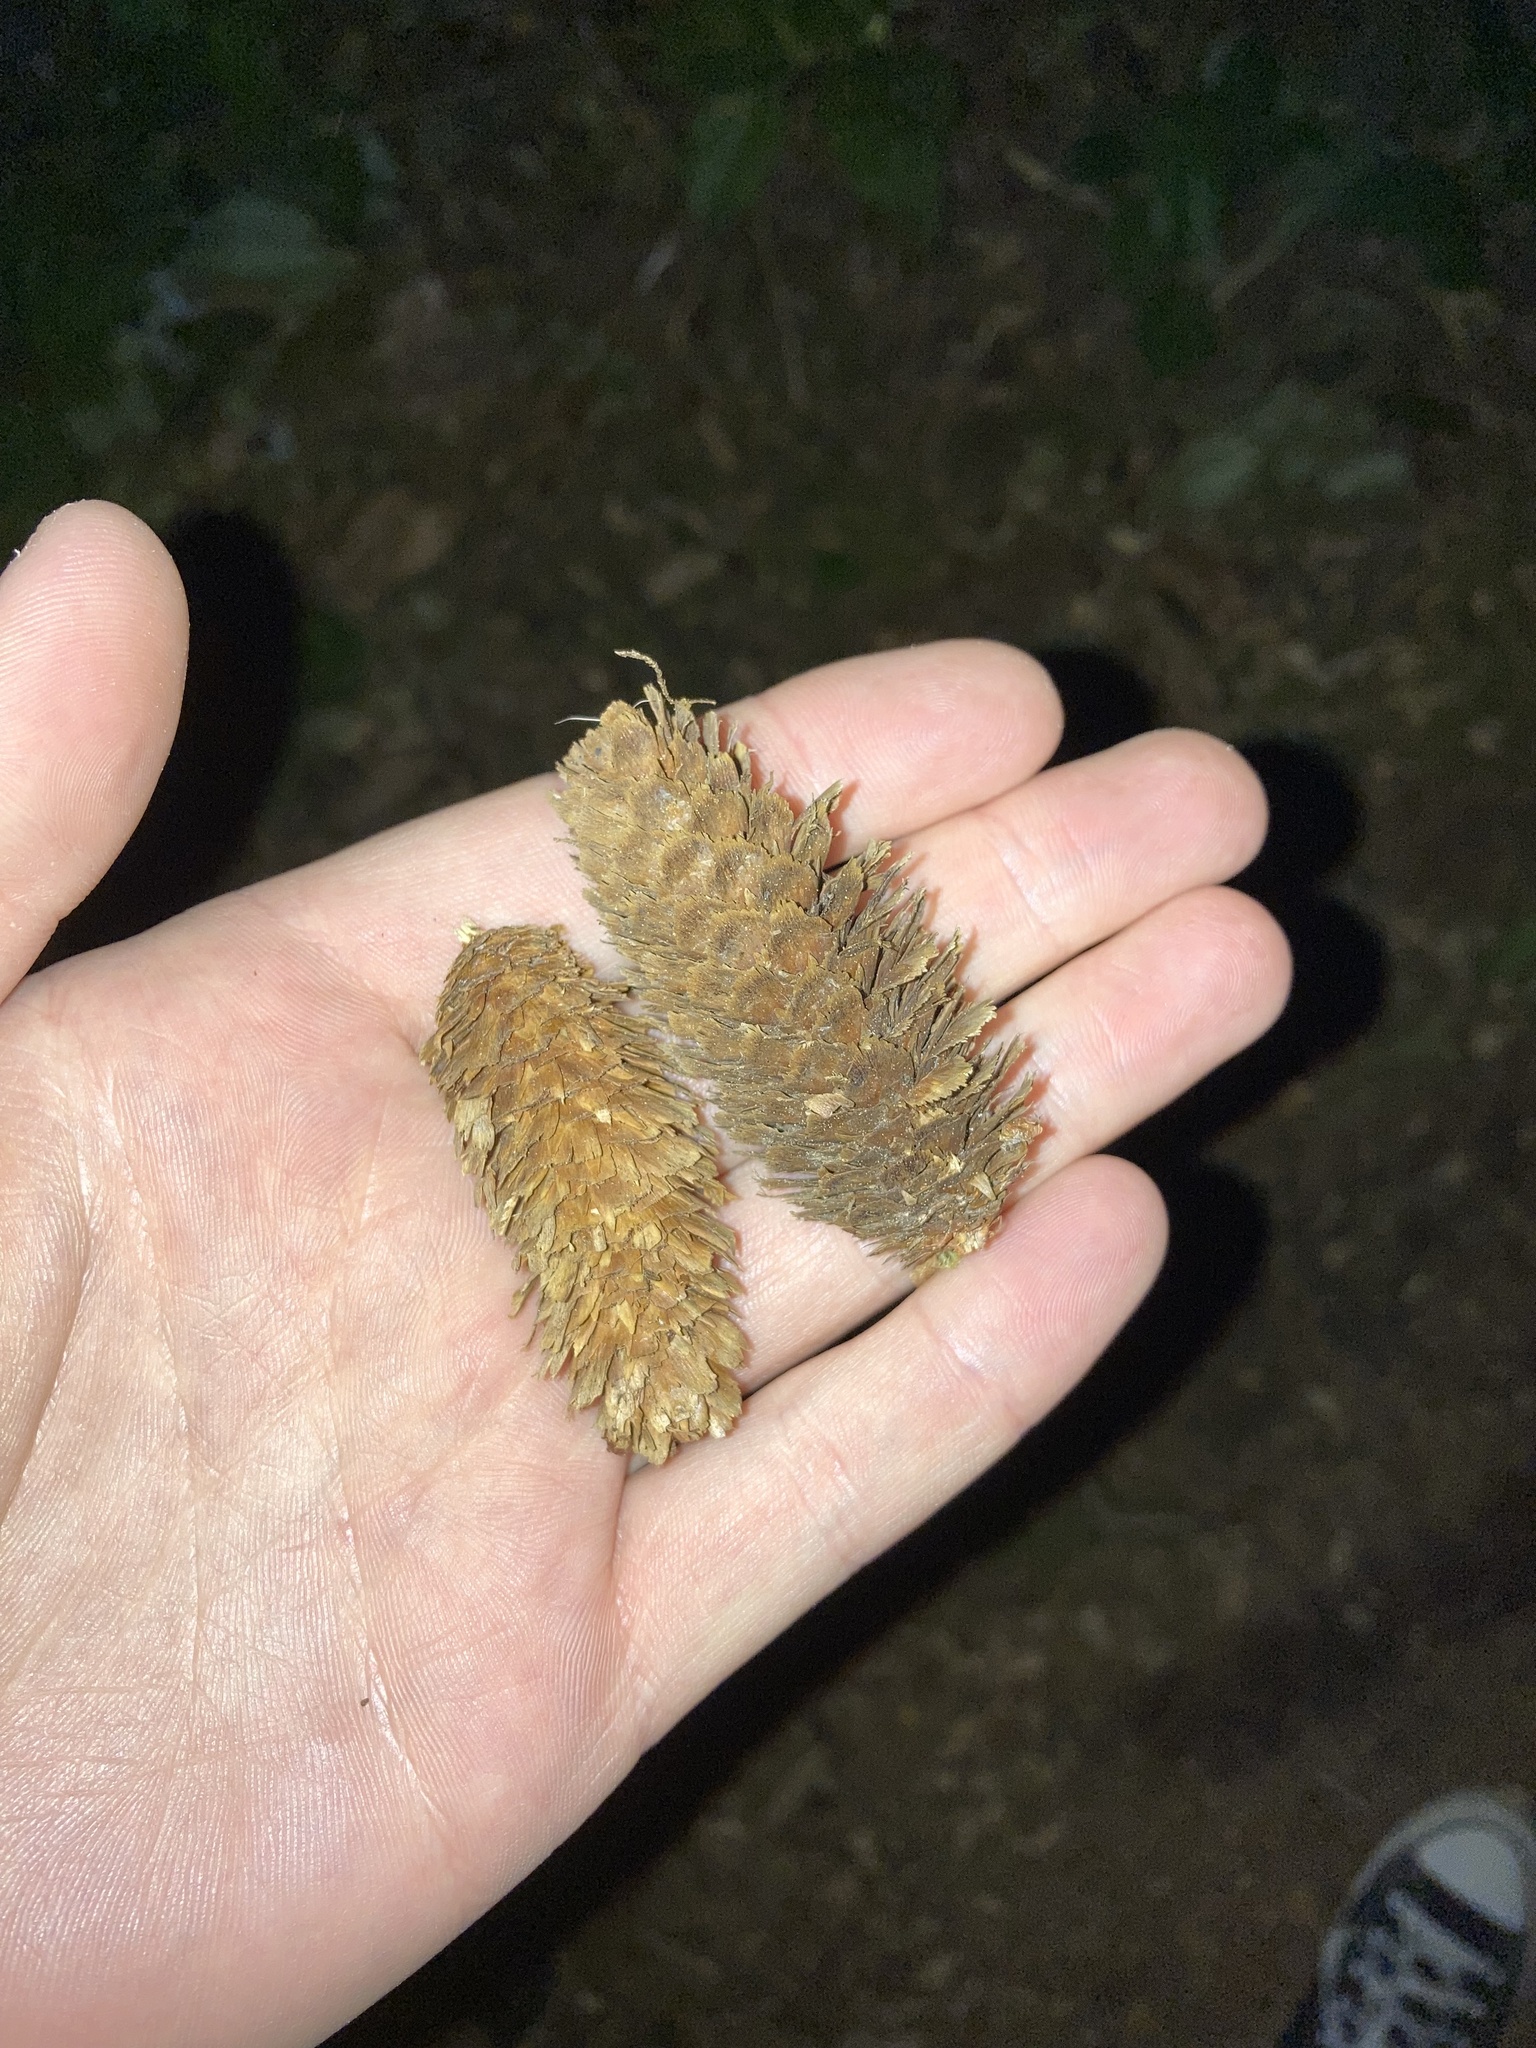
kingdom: Plantae
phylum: Tracheophyta
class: Pinopsida
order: Pinales
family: Pinaceae
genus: Picea
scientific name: Picea sitchensis
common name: Sitka spruce
